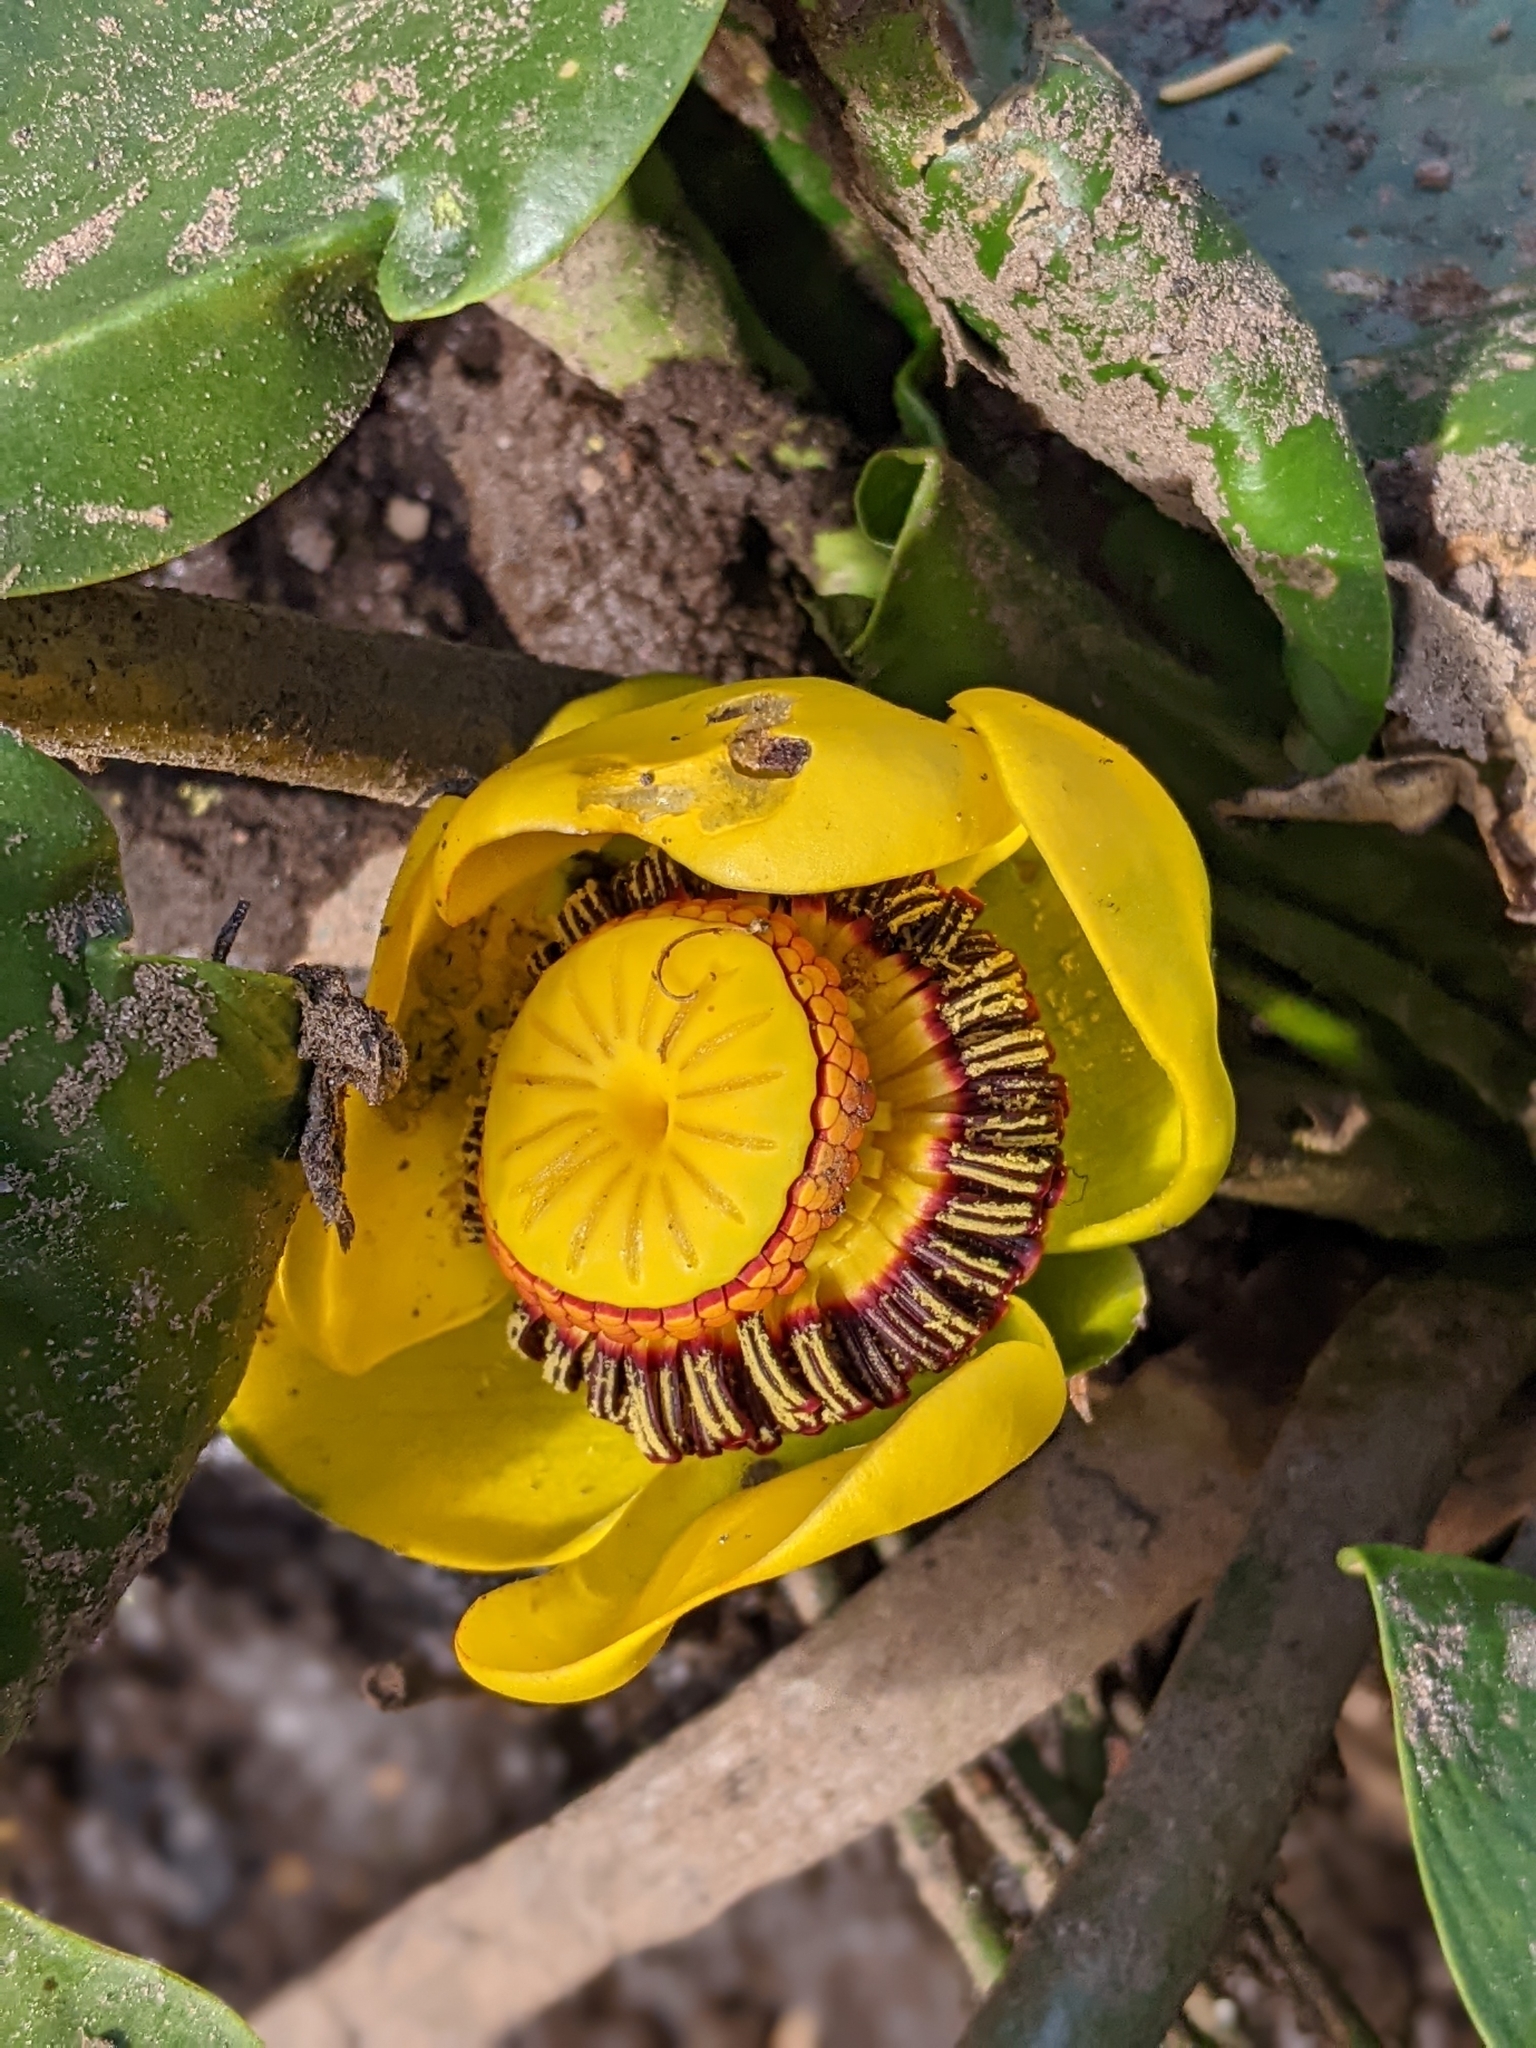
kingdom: Plantae
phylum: Tracheophyta
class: Magnoliopsida
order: Nymphaeales
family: Nymphaeaceae
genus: Nuphar
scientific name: Nuphar polysepala
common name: Rocky mountain cow-lily
